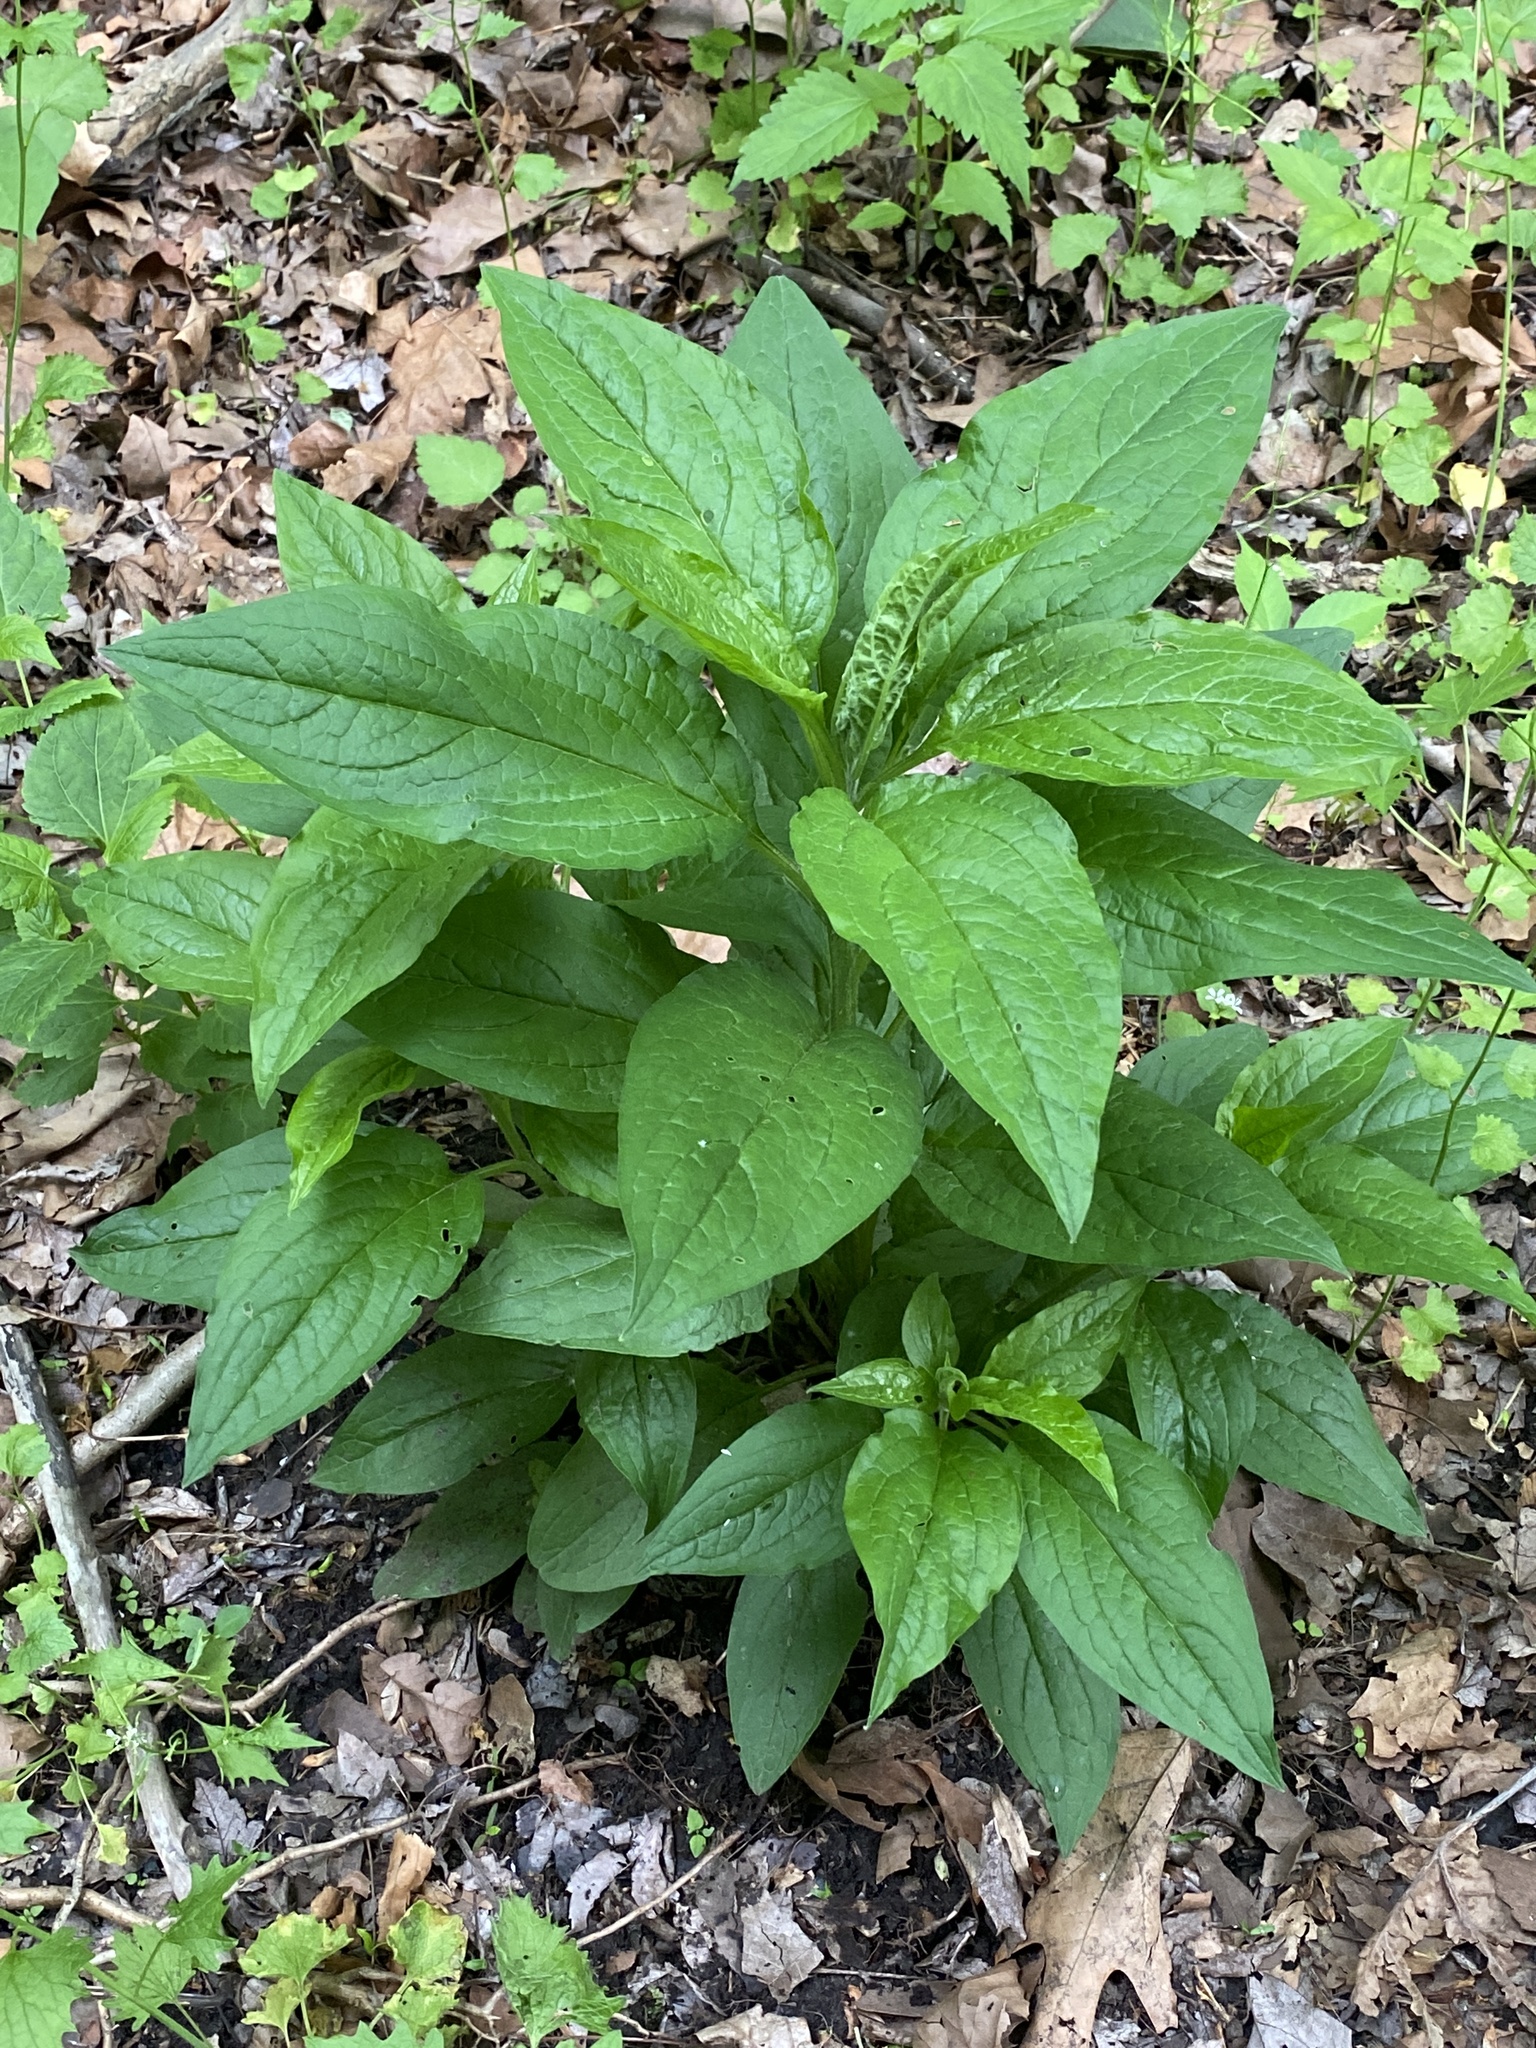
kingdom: Plantae
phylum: Tracheophyta
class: Magnoliopsida
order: Boraginales
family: Boraginaceae
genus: Hackelia
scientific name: Hackelia virginiana
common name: Beggar's-lice
